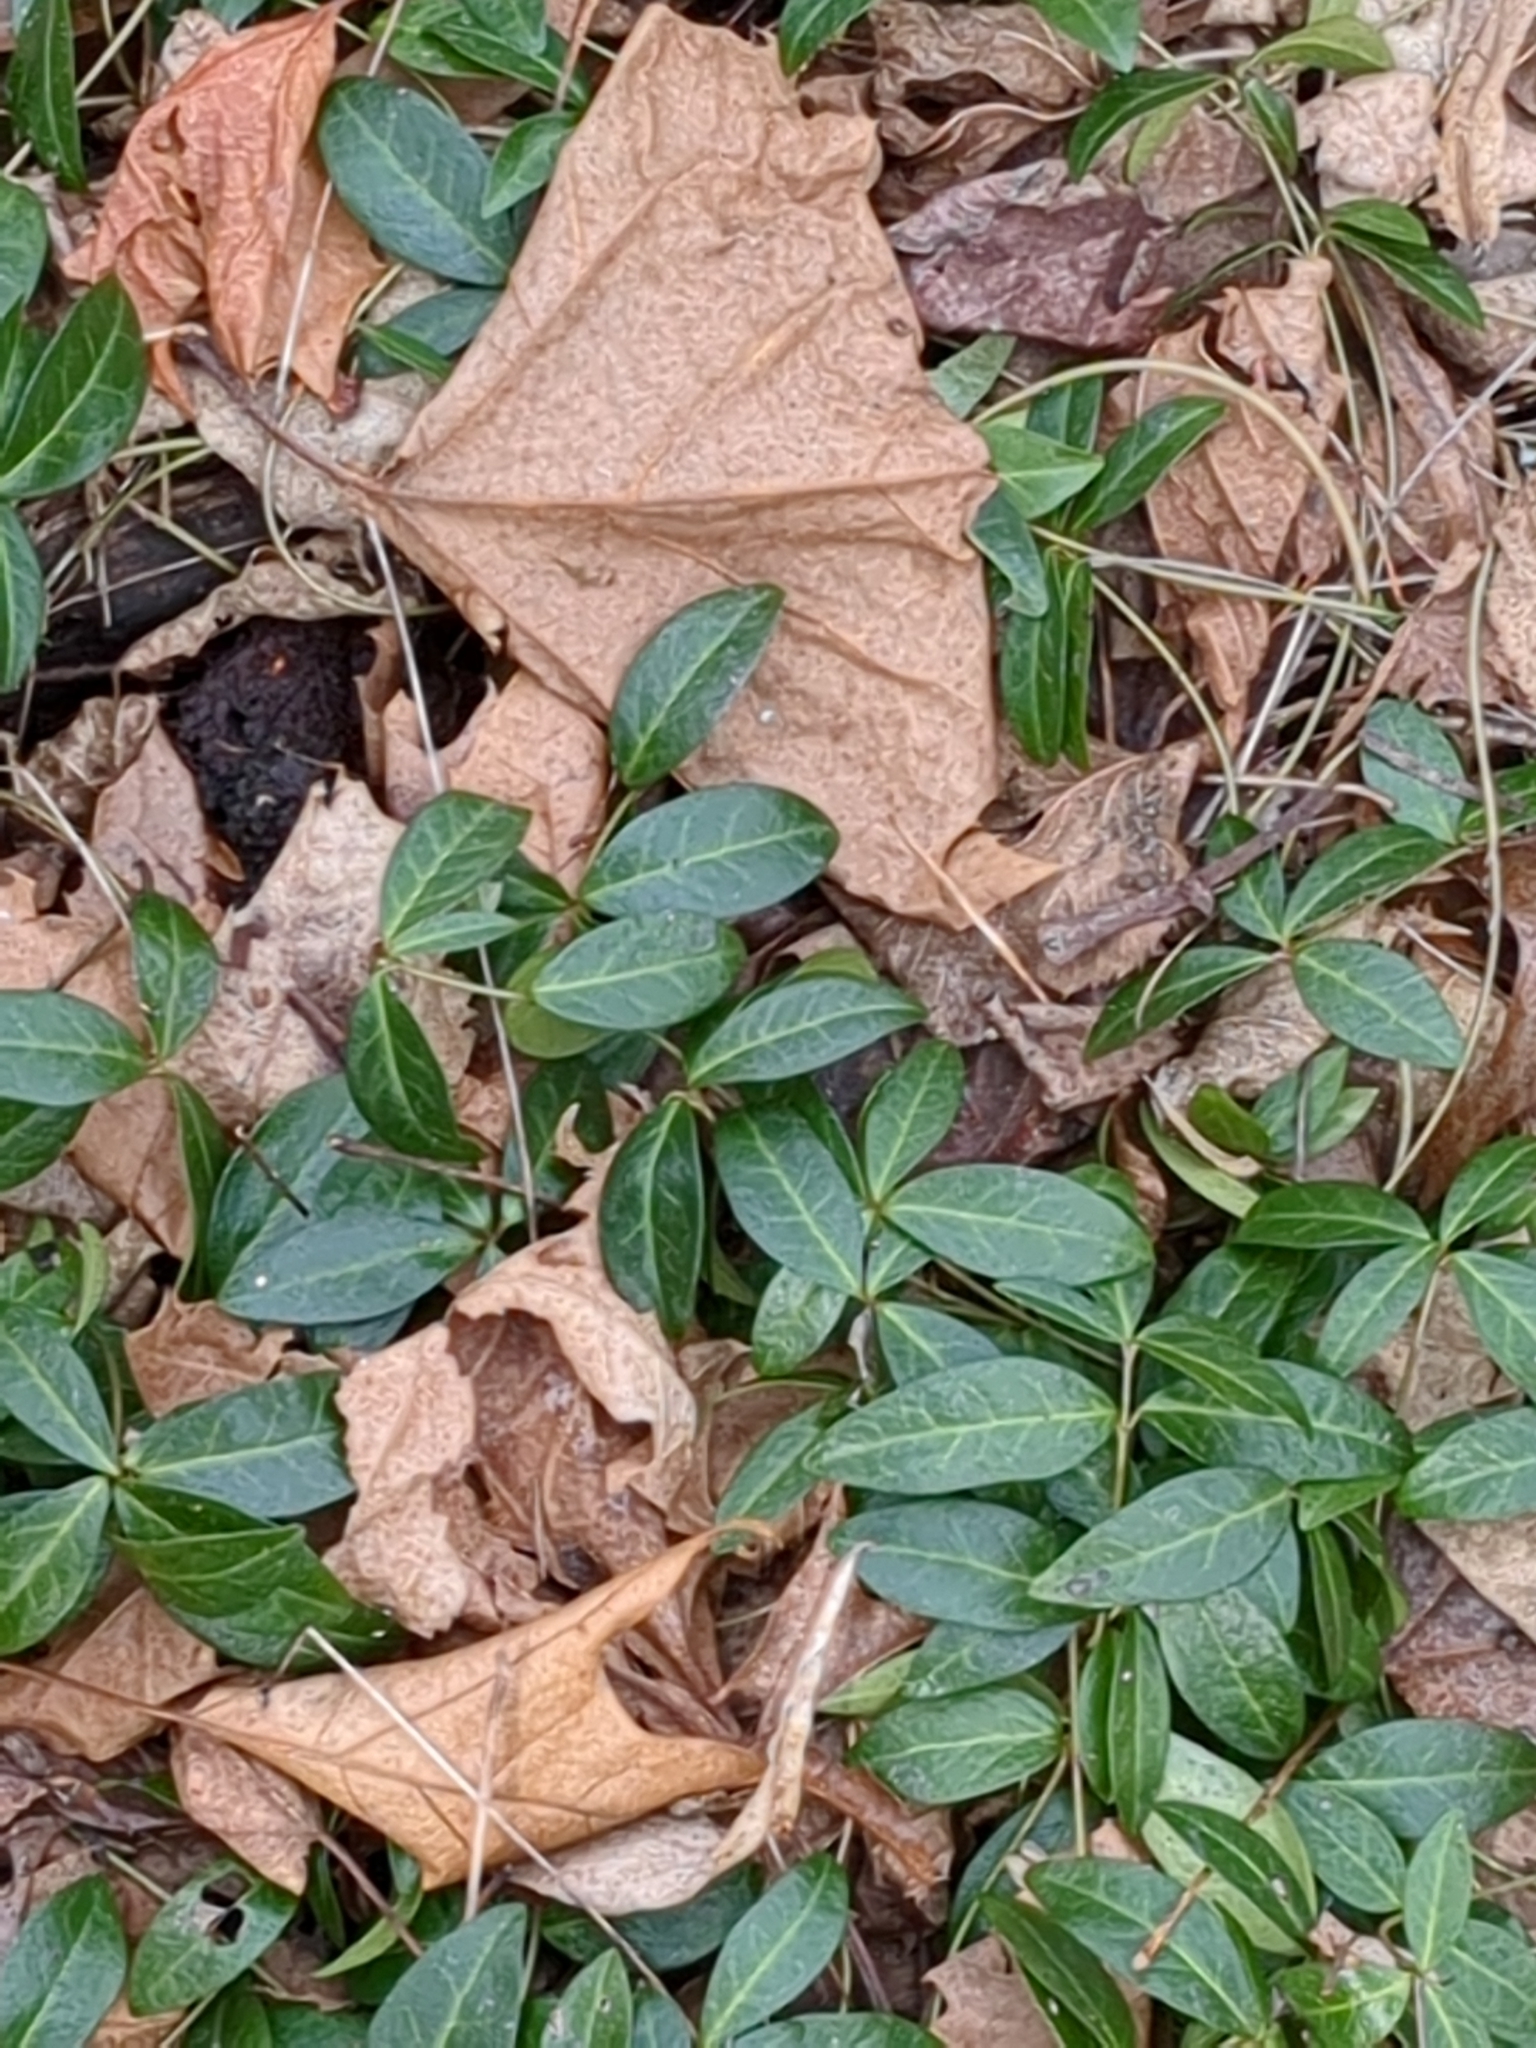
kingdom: Plantae
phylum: Tracheophyta
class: Magnoliopsida
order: Gentianales
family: Apocynaceae
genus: Vinca
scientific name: Vinca minor
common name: Lesser periwinkle
